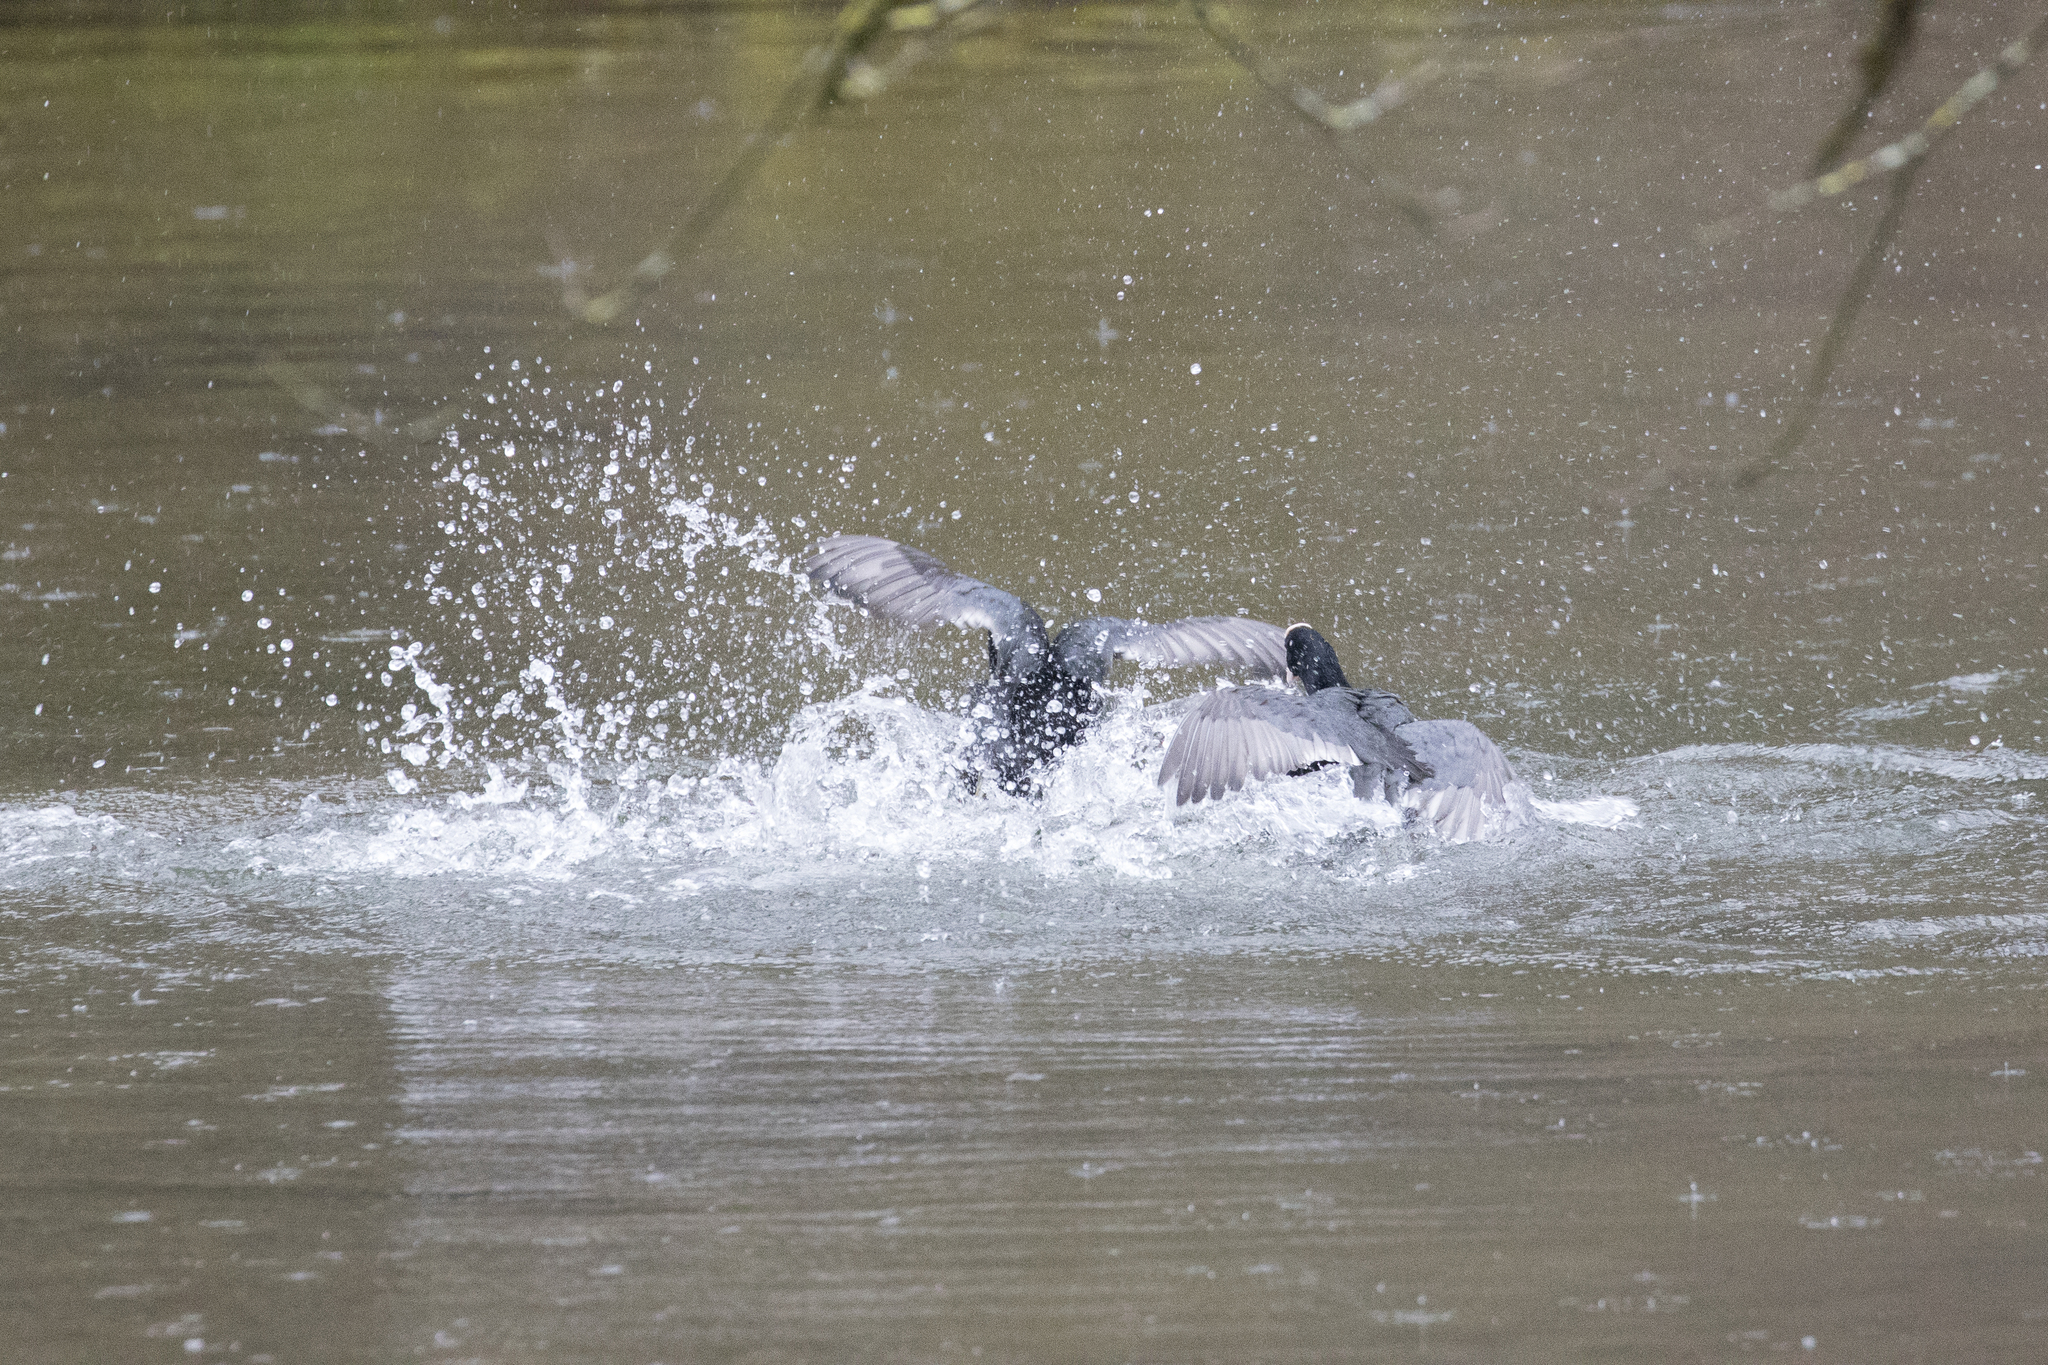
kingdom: Animalia
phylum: Chordata
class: Aves
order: Gruiformes
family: Rallidae
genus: Fulica
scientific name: Fulica atra
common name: Eurasian coot
